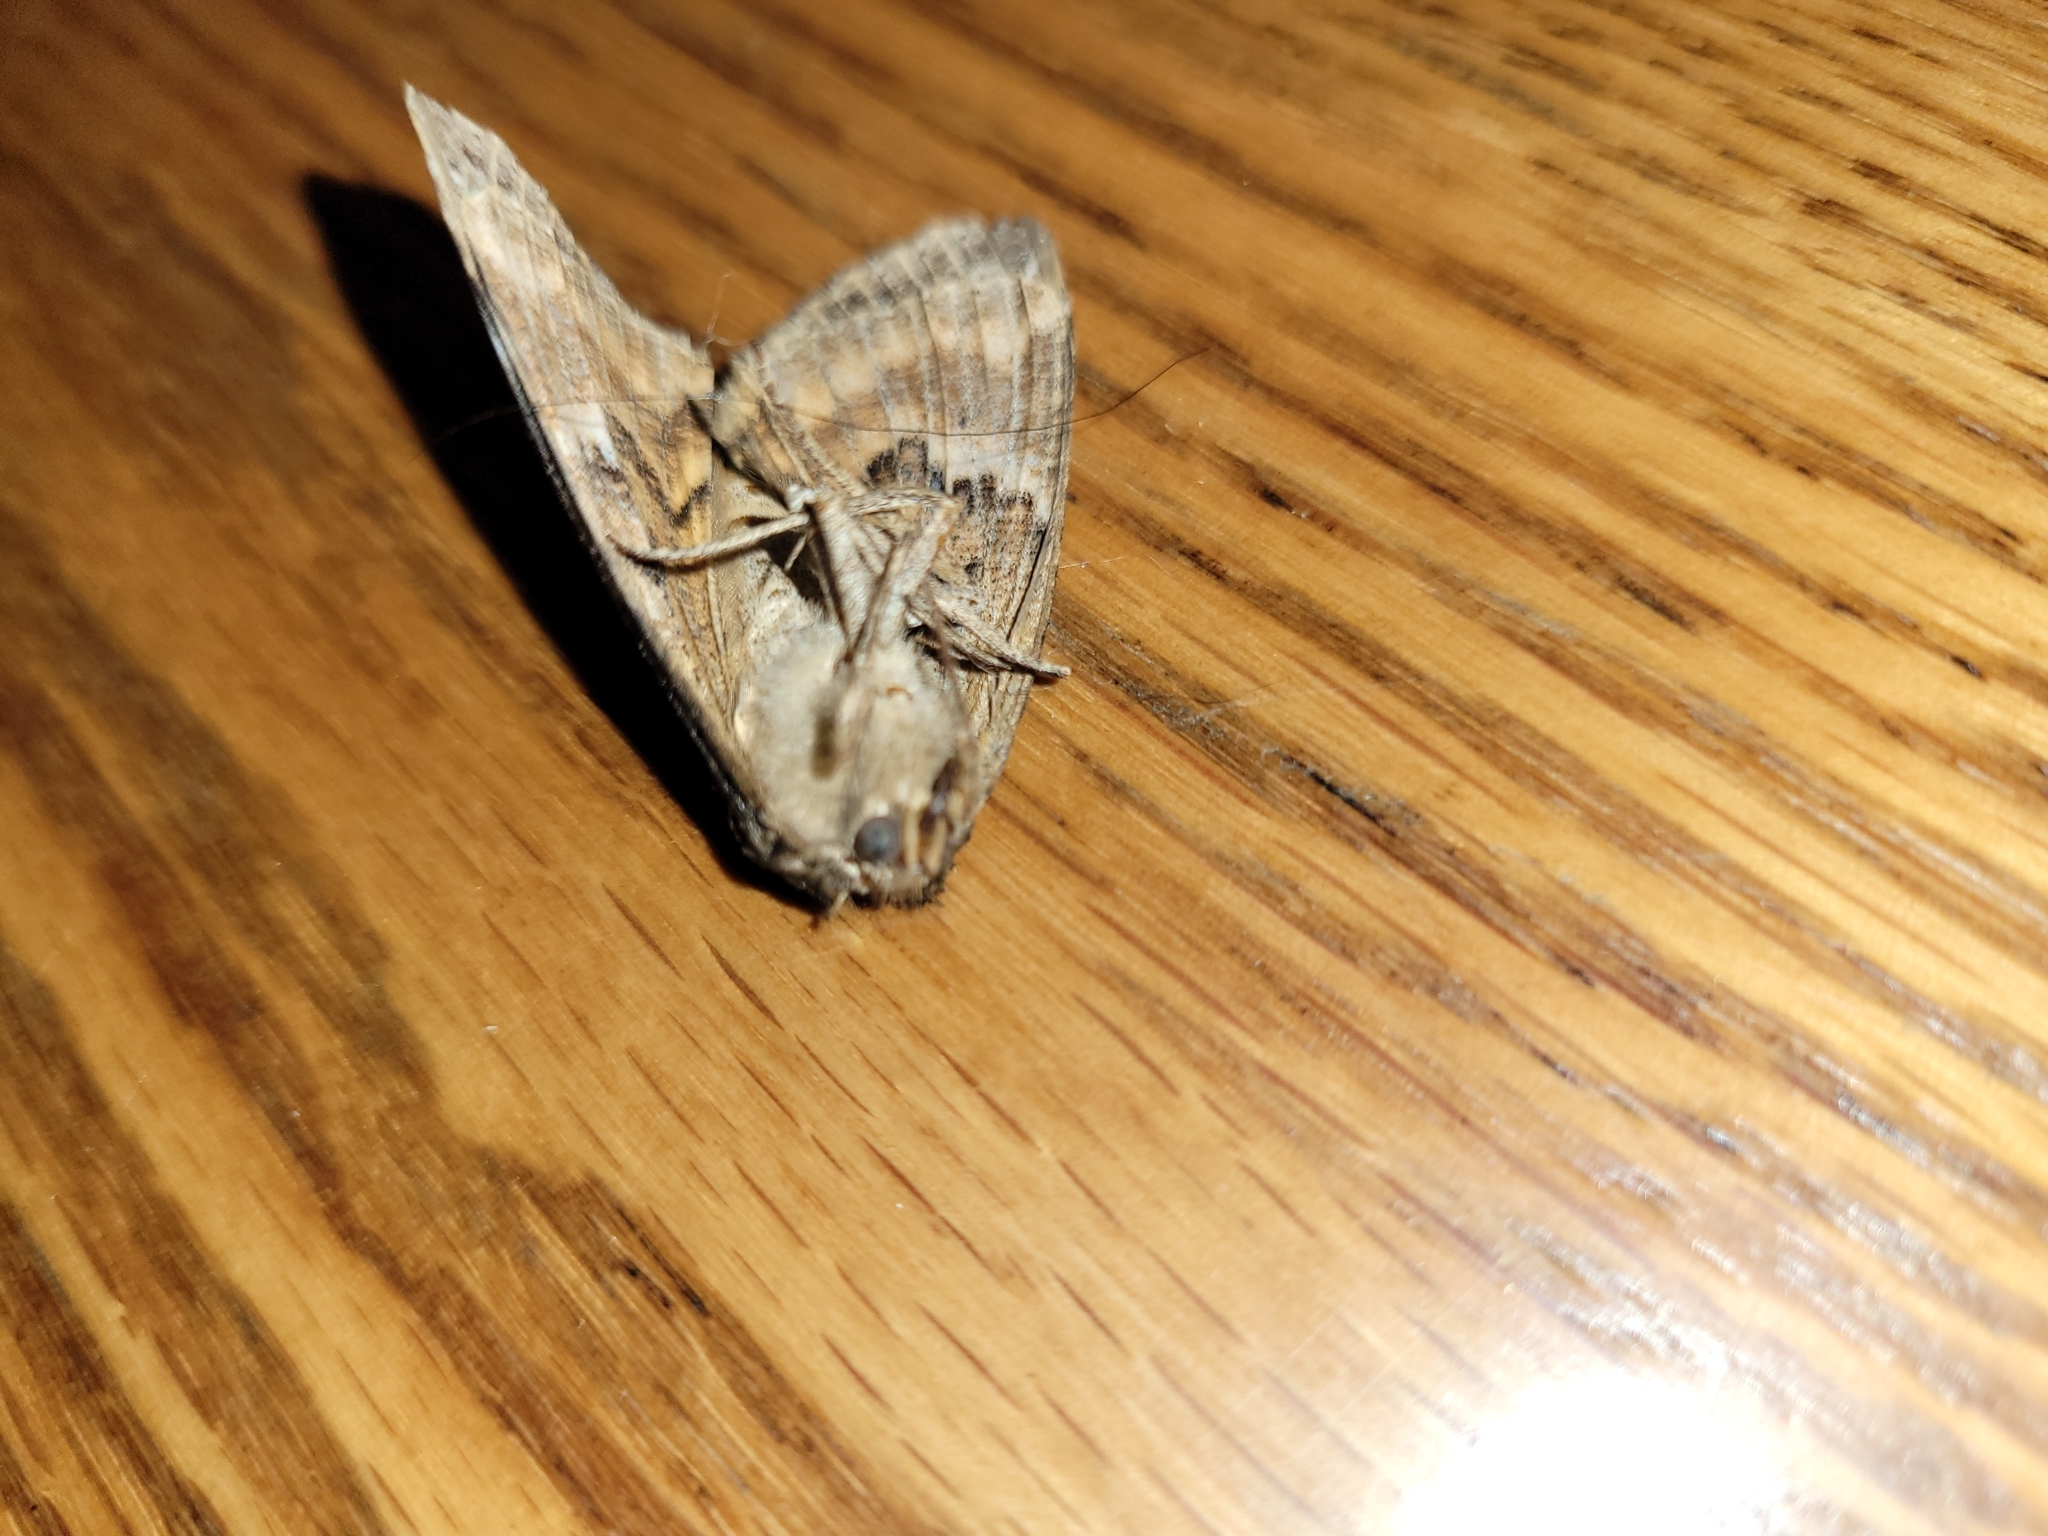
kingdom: Animalia
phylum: Arthropoda
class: Insecta
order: Lepidoptera
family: Erebidae
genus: Euparthenos
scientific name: Euparthenos nubilis
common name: Locust underwing
